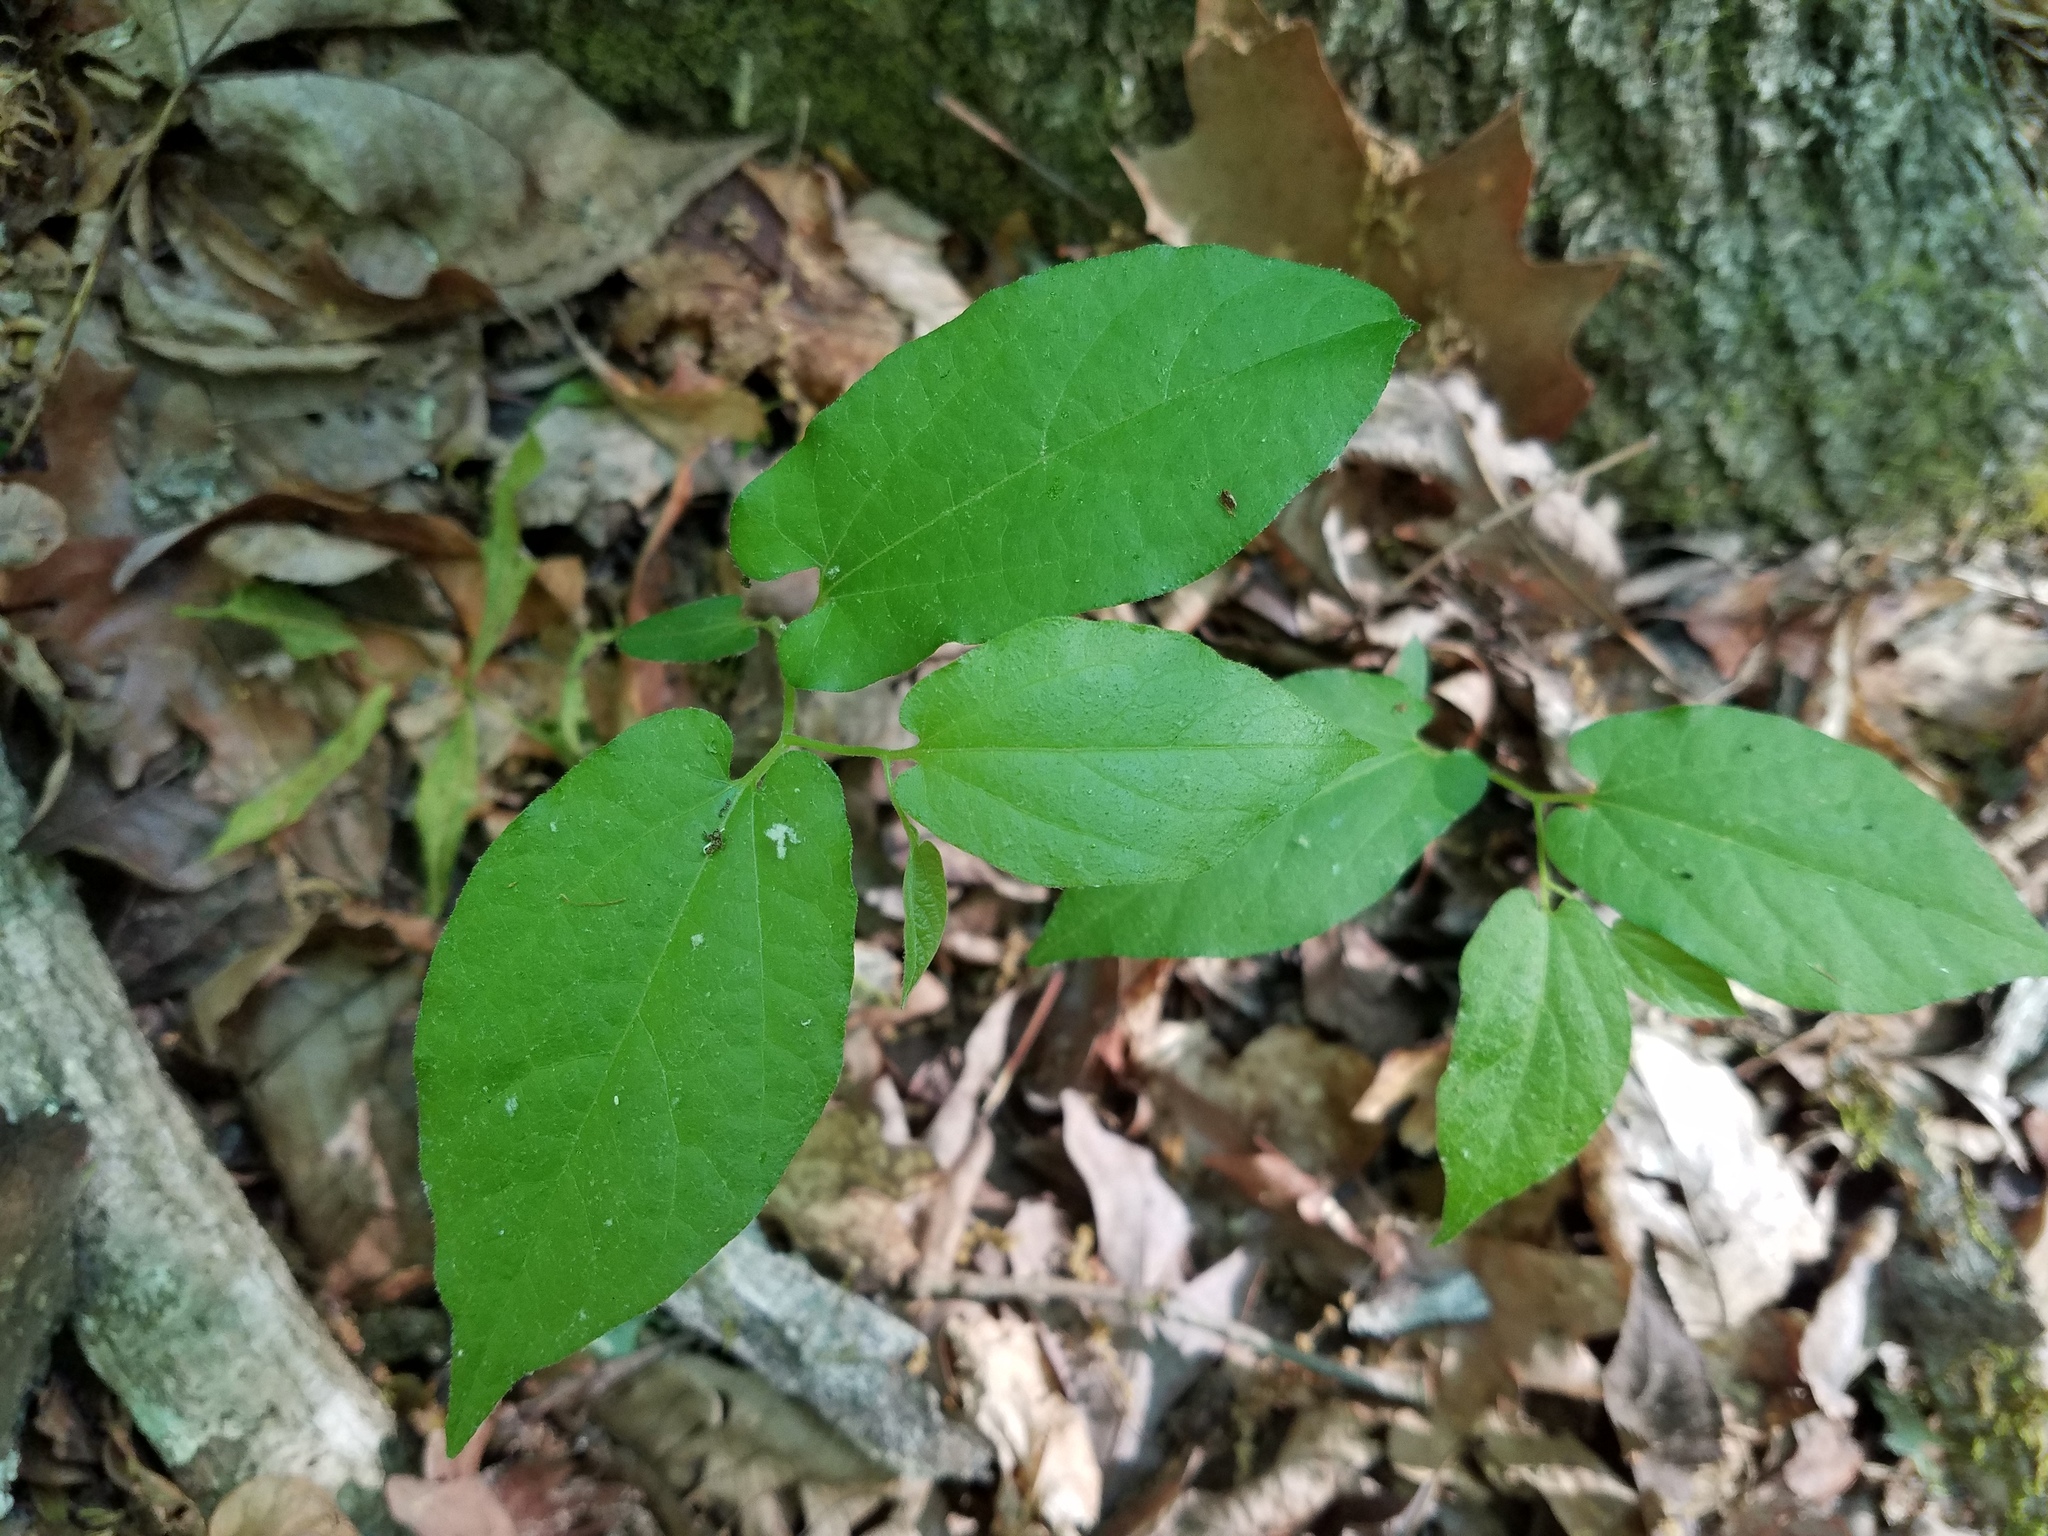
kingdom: Plantae
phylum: Tracheophyta
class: Magnoliopsida
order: Piperales
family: Aristolochiaceae
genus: Endodeca
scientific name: Endodeca serpentaria
